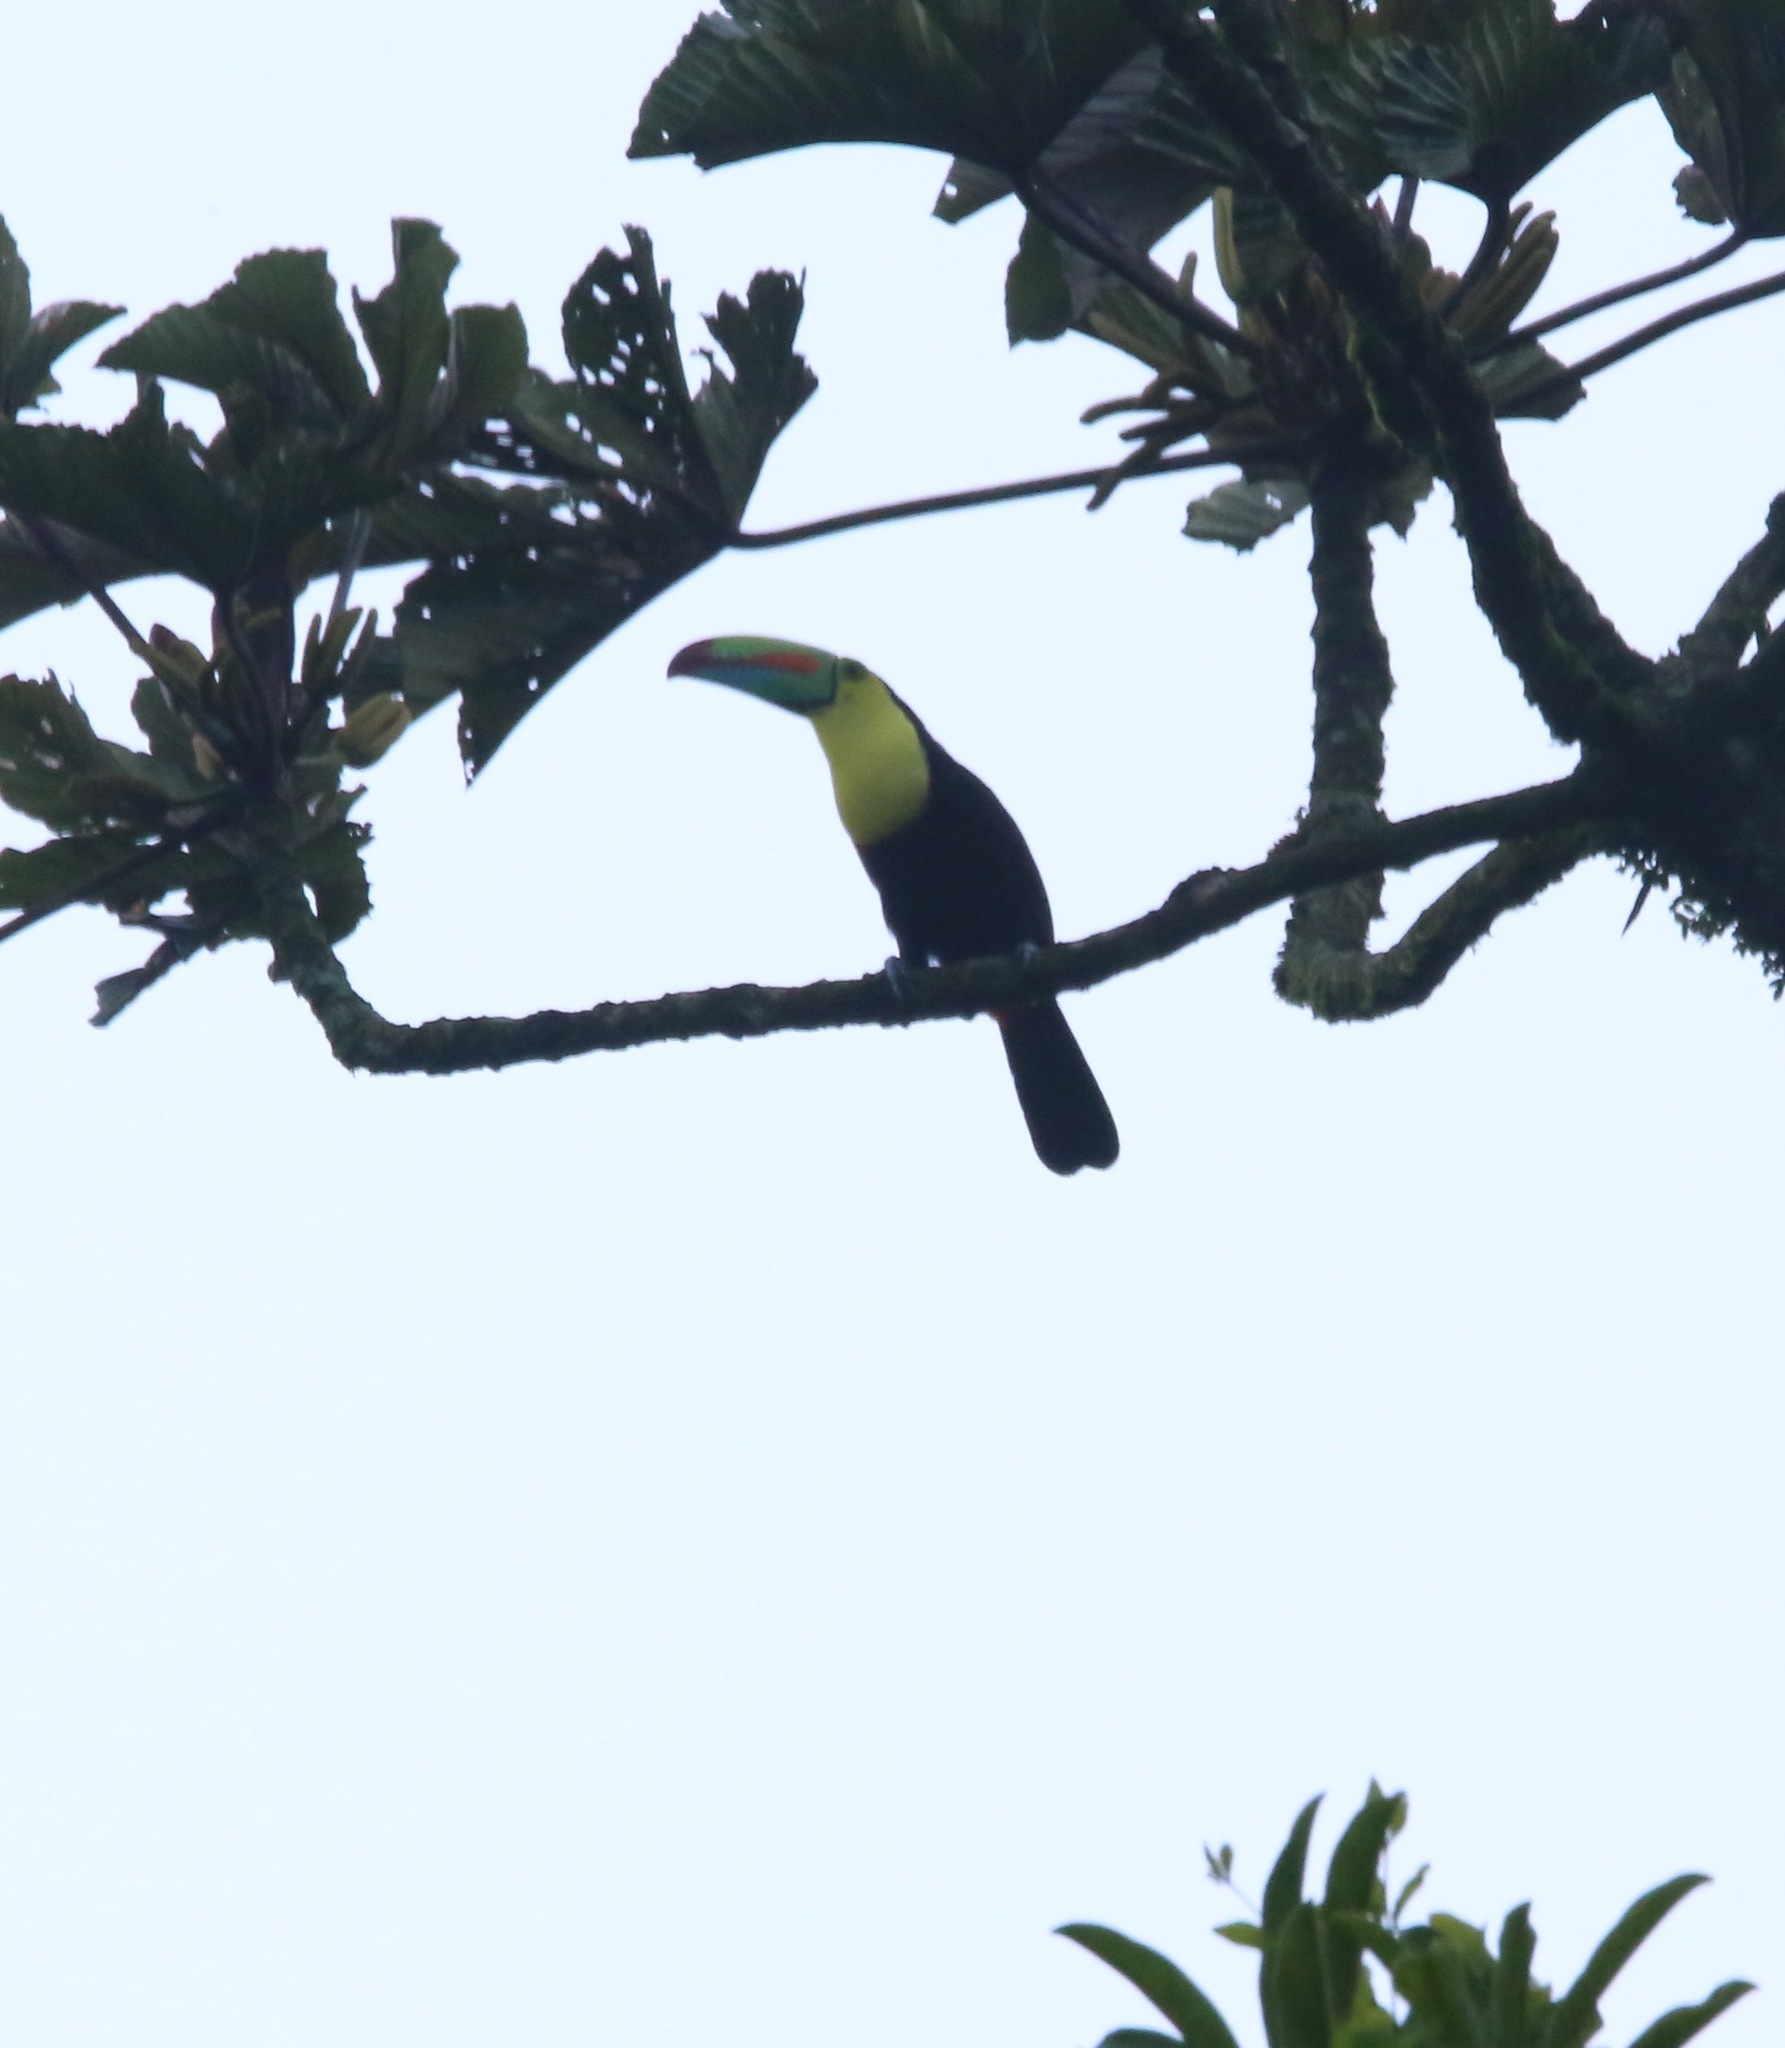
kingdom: Animalia
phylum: Chordata
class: Aves
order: Piciformes
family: Ramphastidae
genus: Ramphastos
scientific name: Ramphastos sulfuratus
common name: Keel-billed toucan
